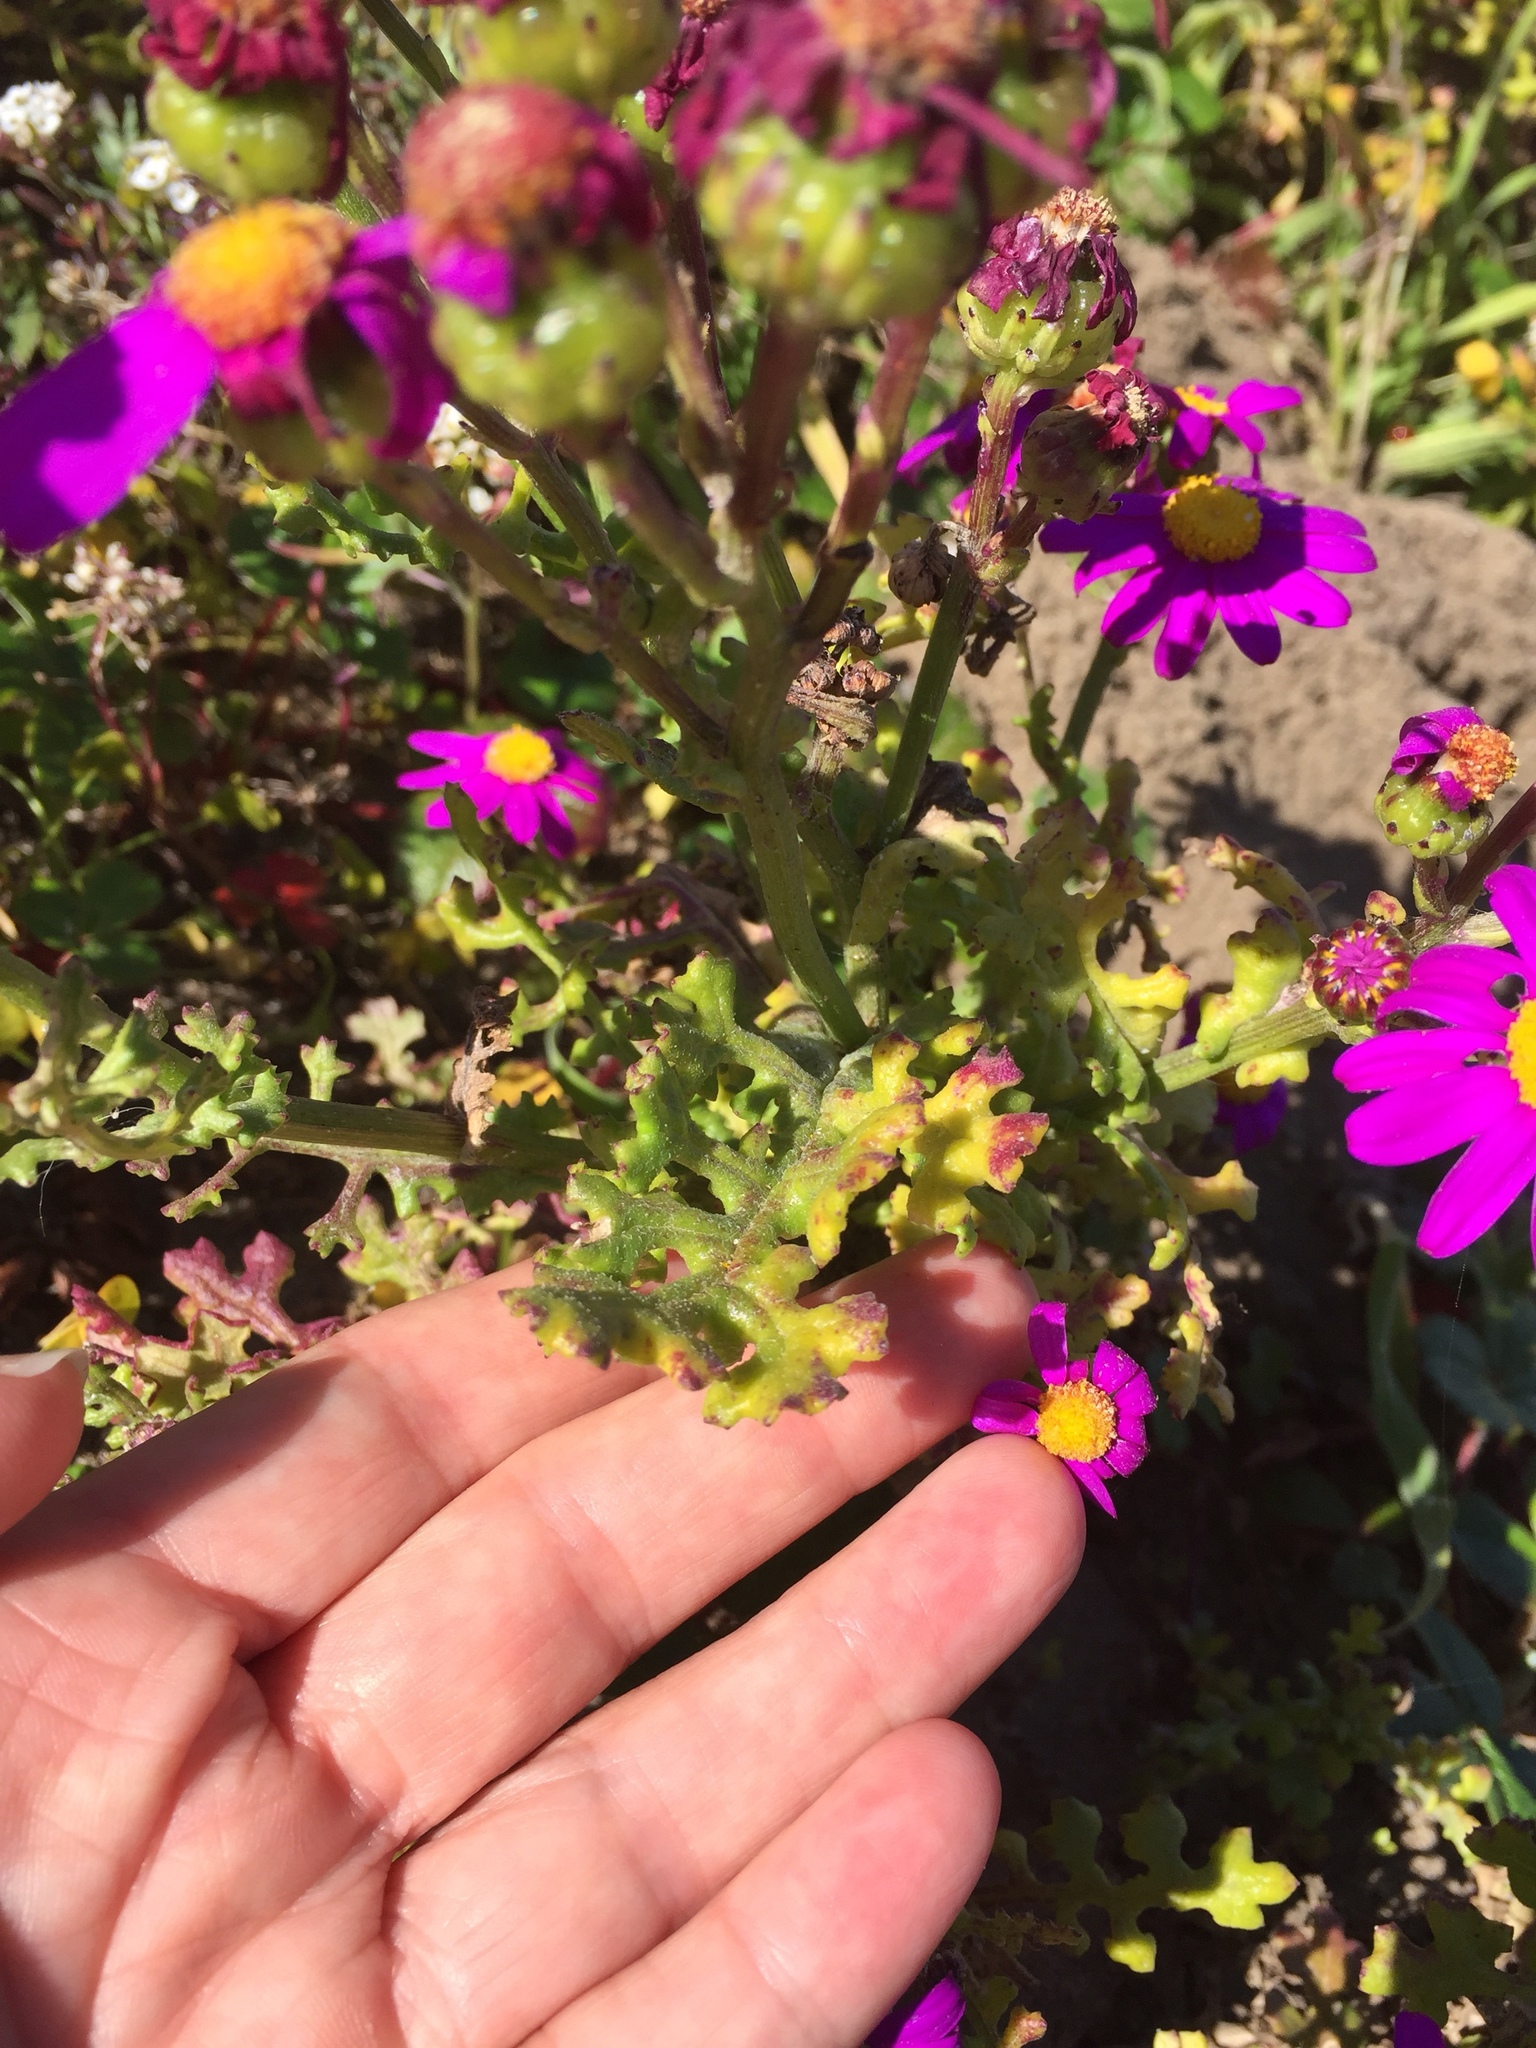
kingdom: Plantae
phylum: Tracheophyta
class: Magnoliopsida
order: Asterales
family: Asteraceae
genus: Senecio
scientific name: Senecio elegans
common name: Purple groundsel
